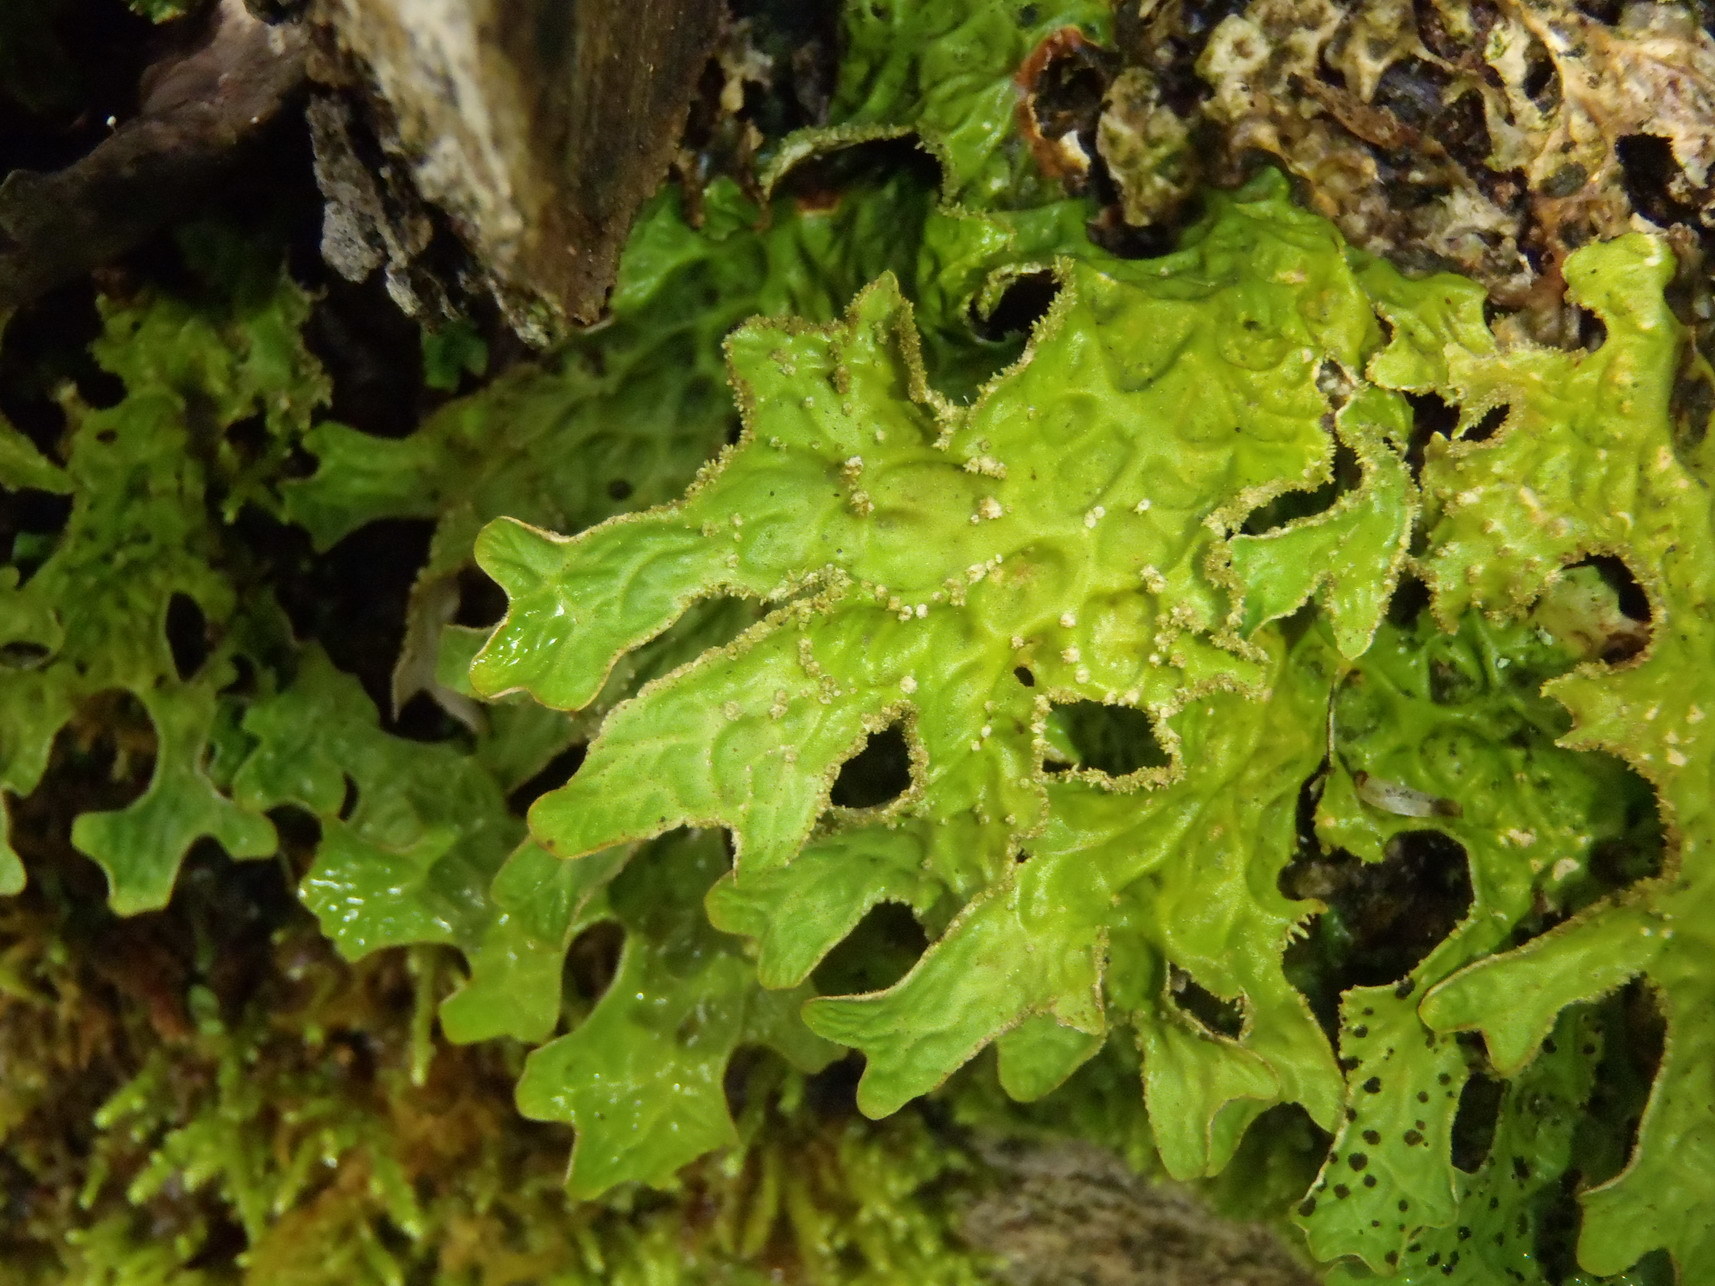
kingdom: Fungi
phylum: Ascomycota
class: Lecanoromycetes
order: Peltigerales
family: Lobariaceae
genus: Lobaria
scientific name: Lobaria pulmonaria
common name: Lungwort
